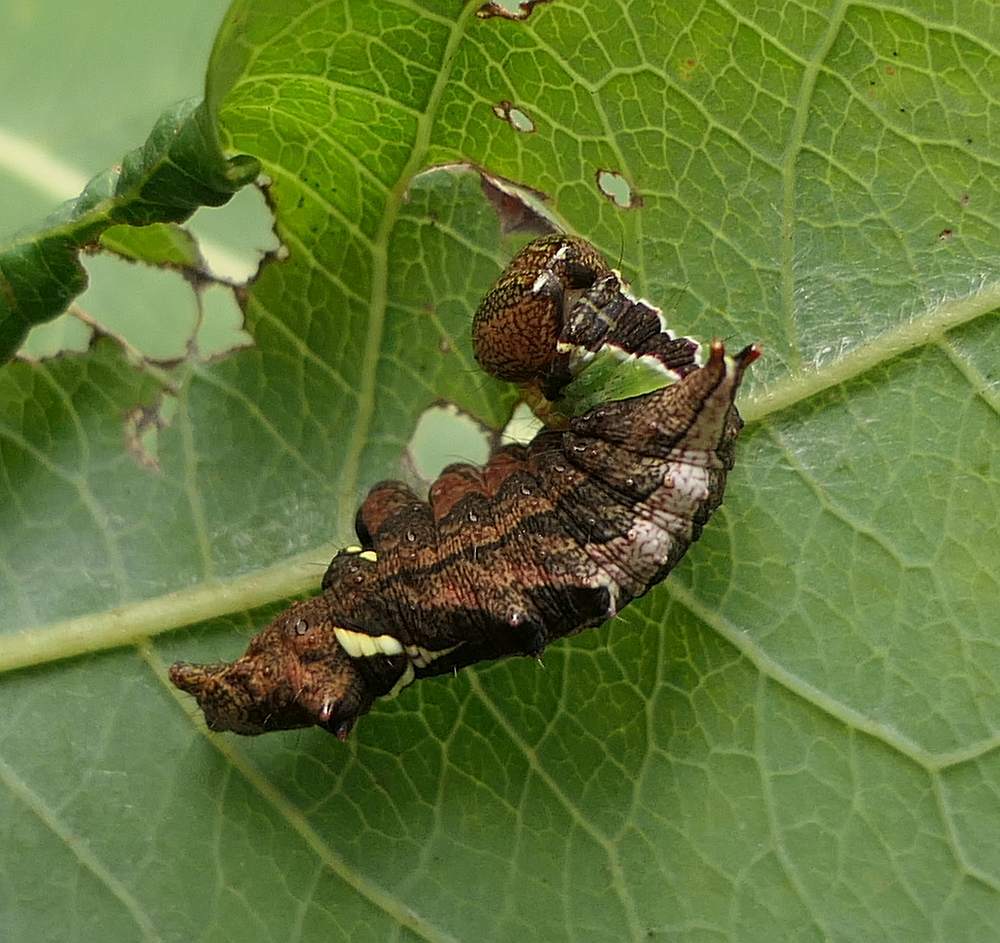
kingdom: Animalia
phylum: Arthropoda
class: Insecta
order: Lepidoptera
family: Notodontidae
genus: Schizura
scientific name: Schizura
